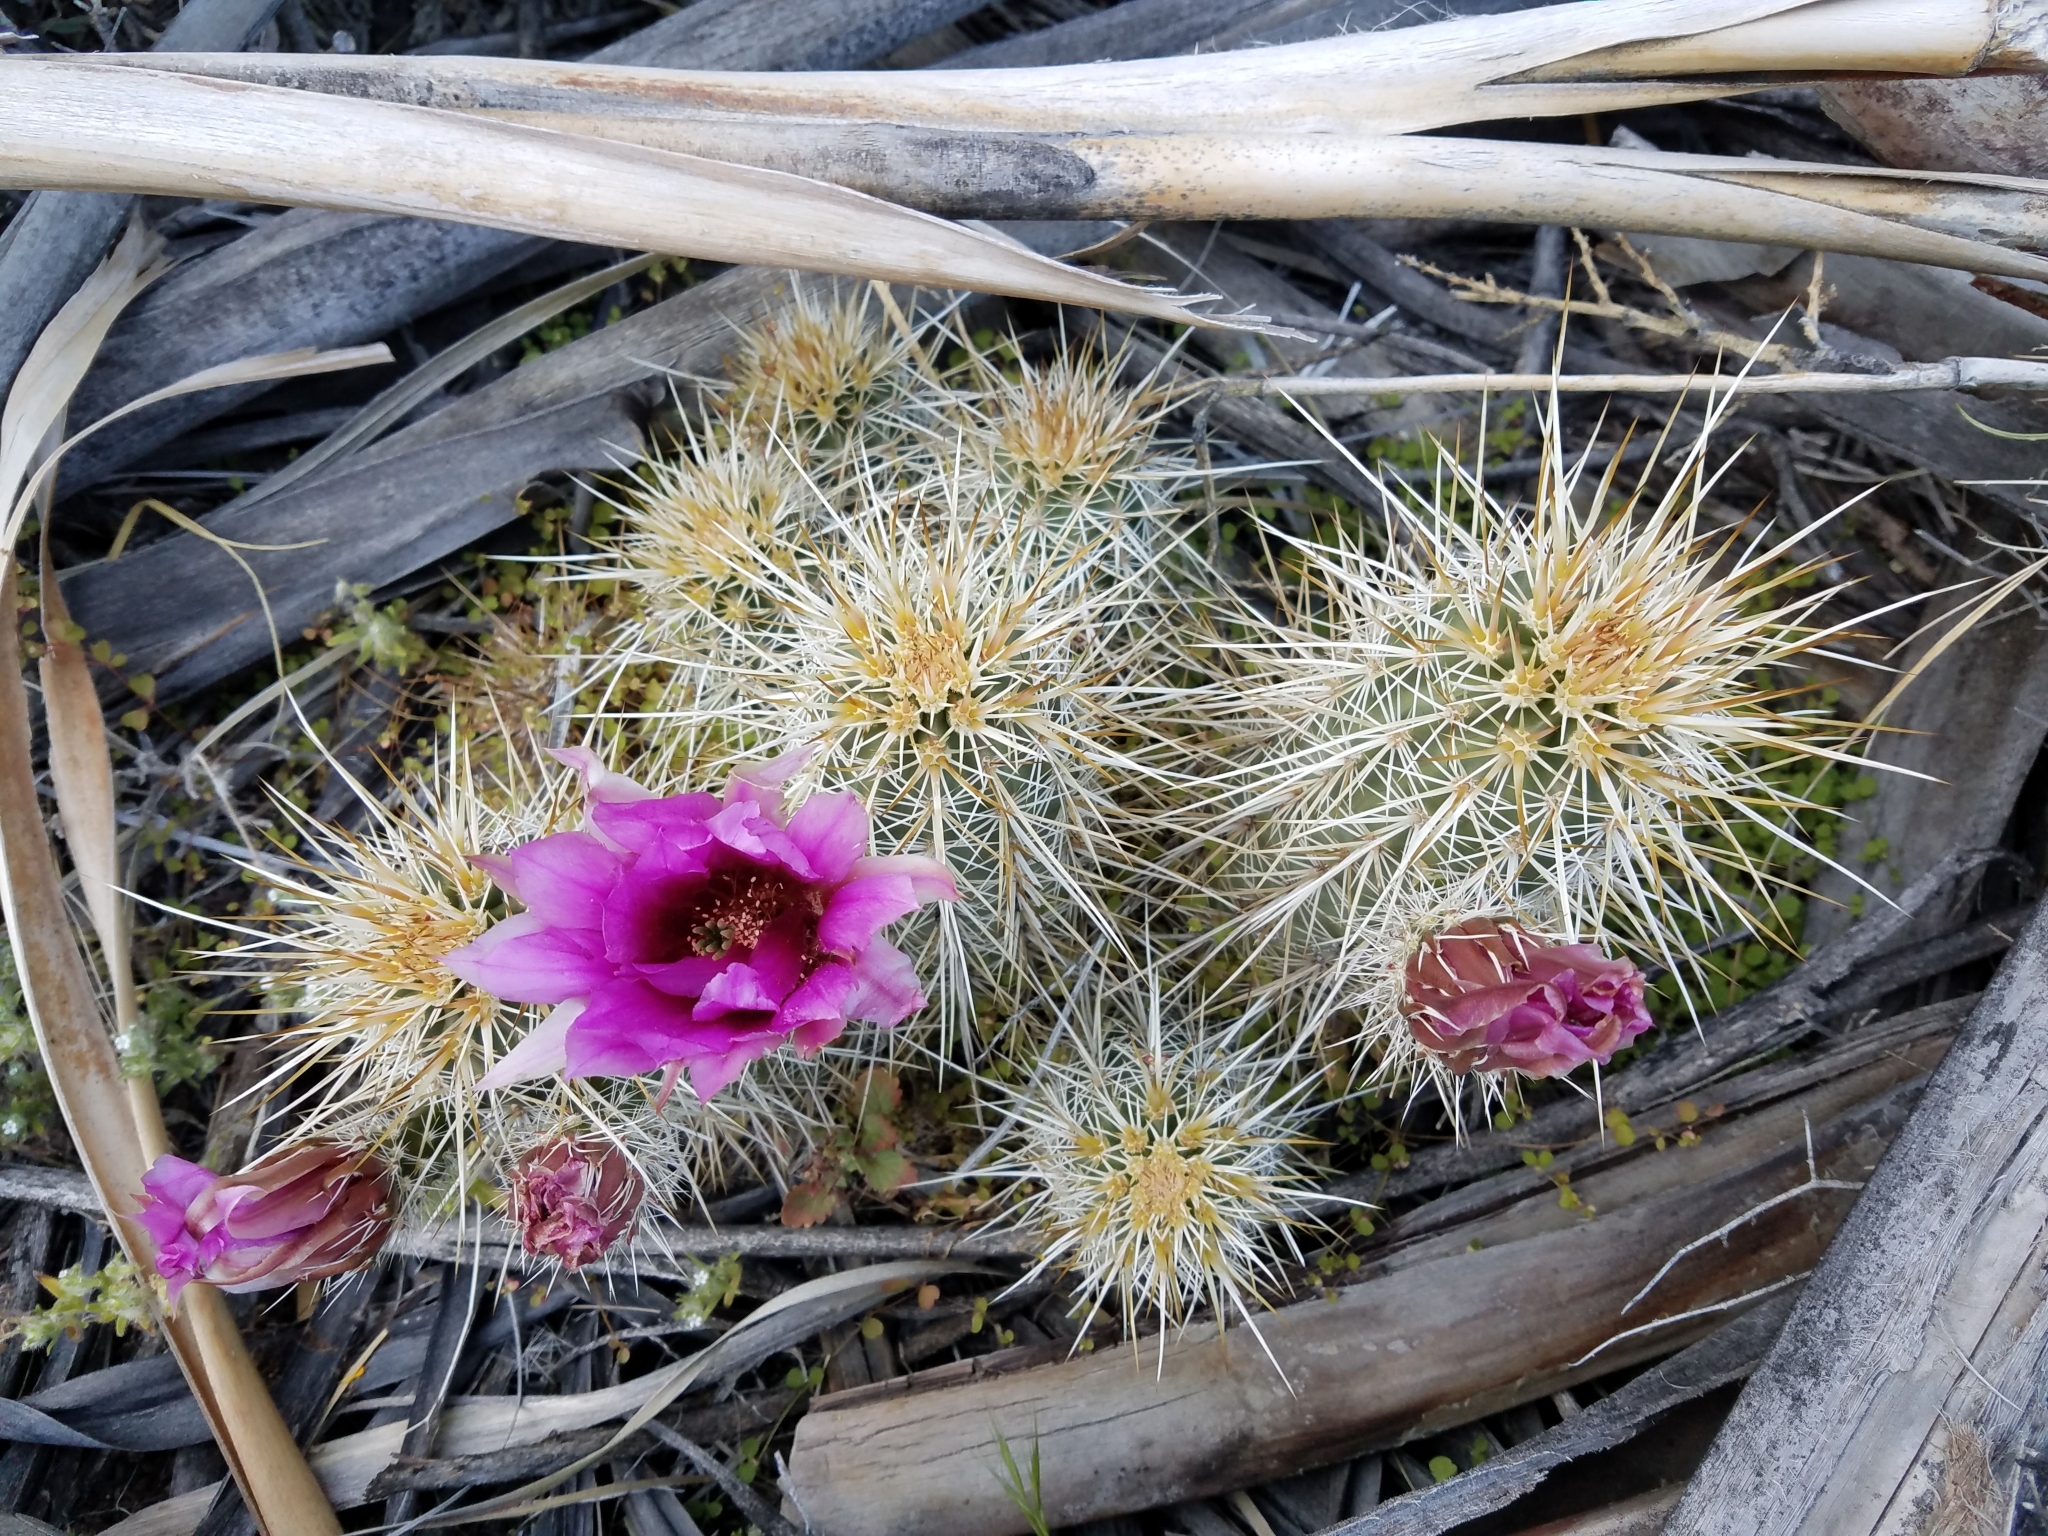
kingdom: Plantae
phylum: Tracheophyta
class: Magnoliopsida
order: Caryophyllales
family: Cactaceae
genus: Echinocereus
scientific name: Echinocereus engelmannii
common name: Engelmann's hedgehog cactus
